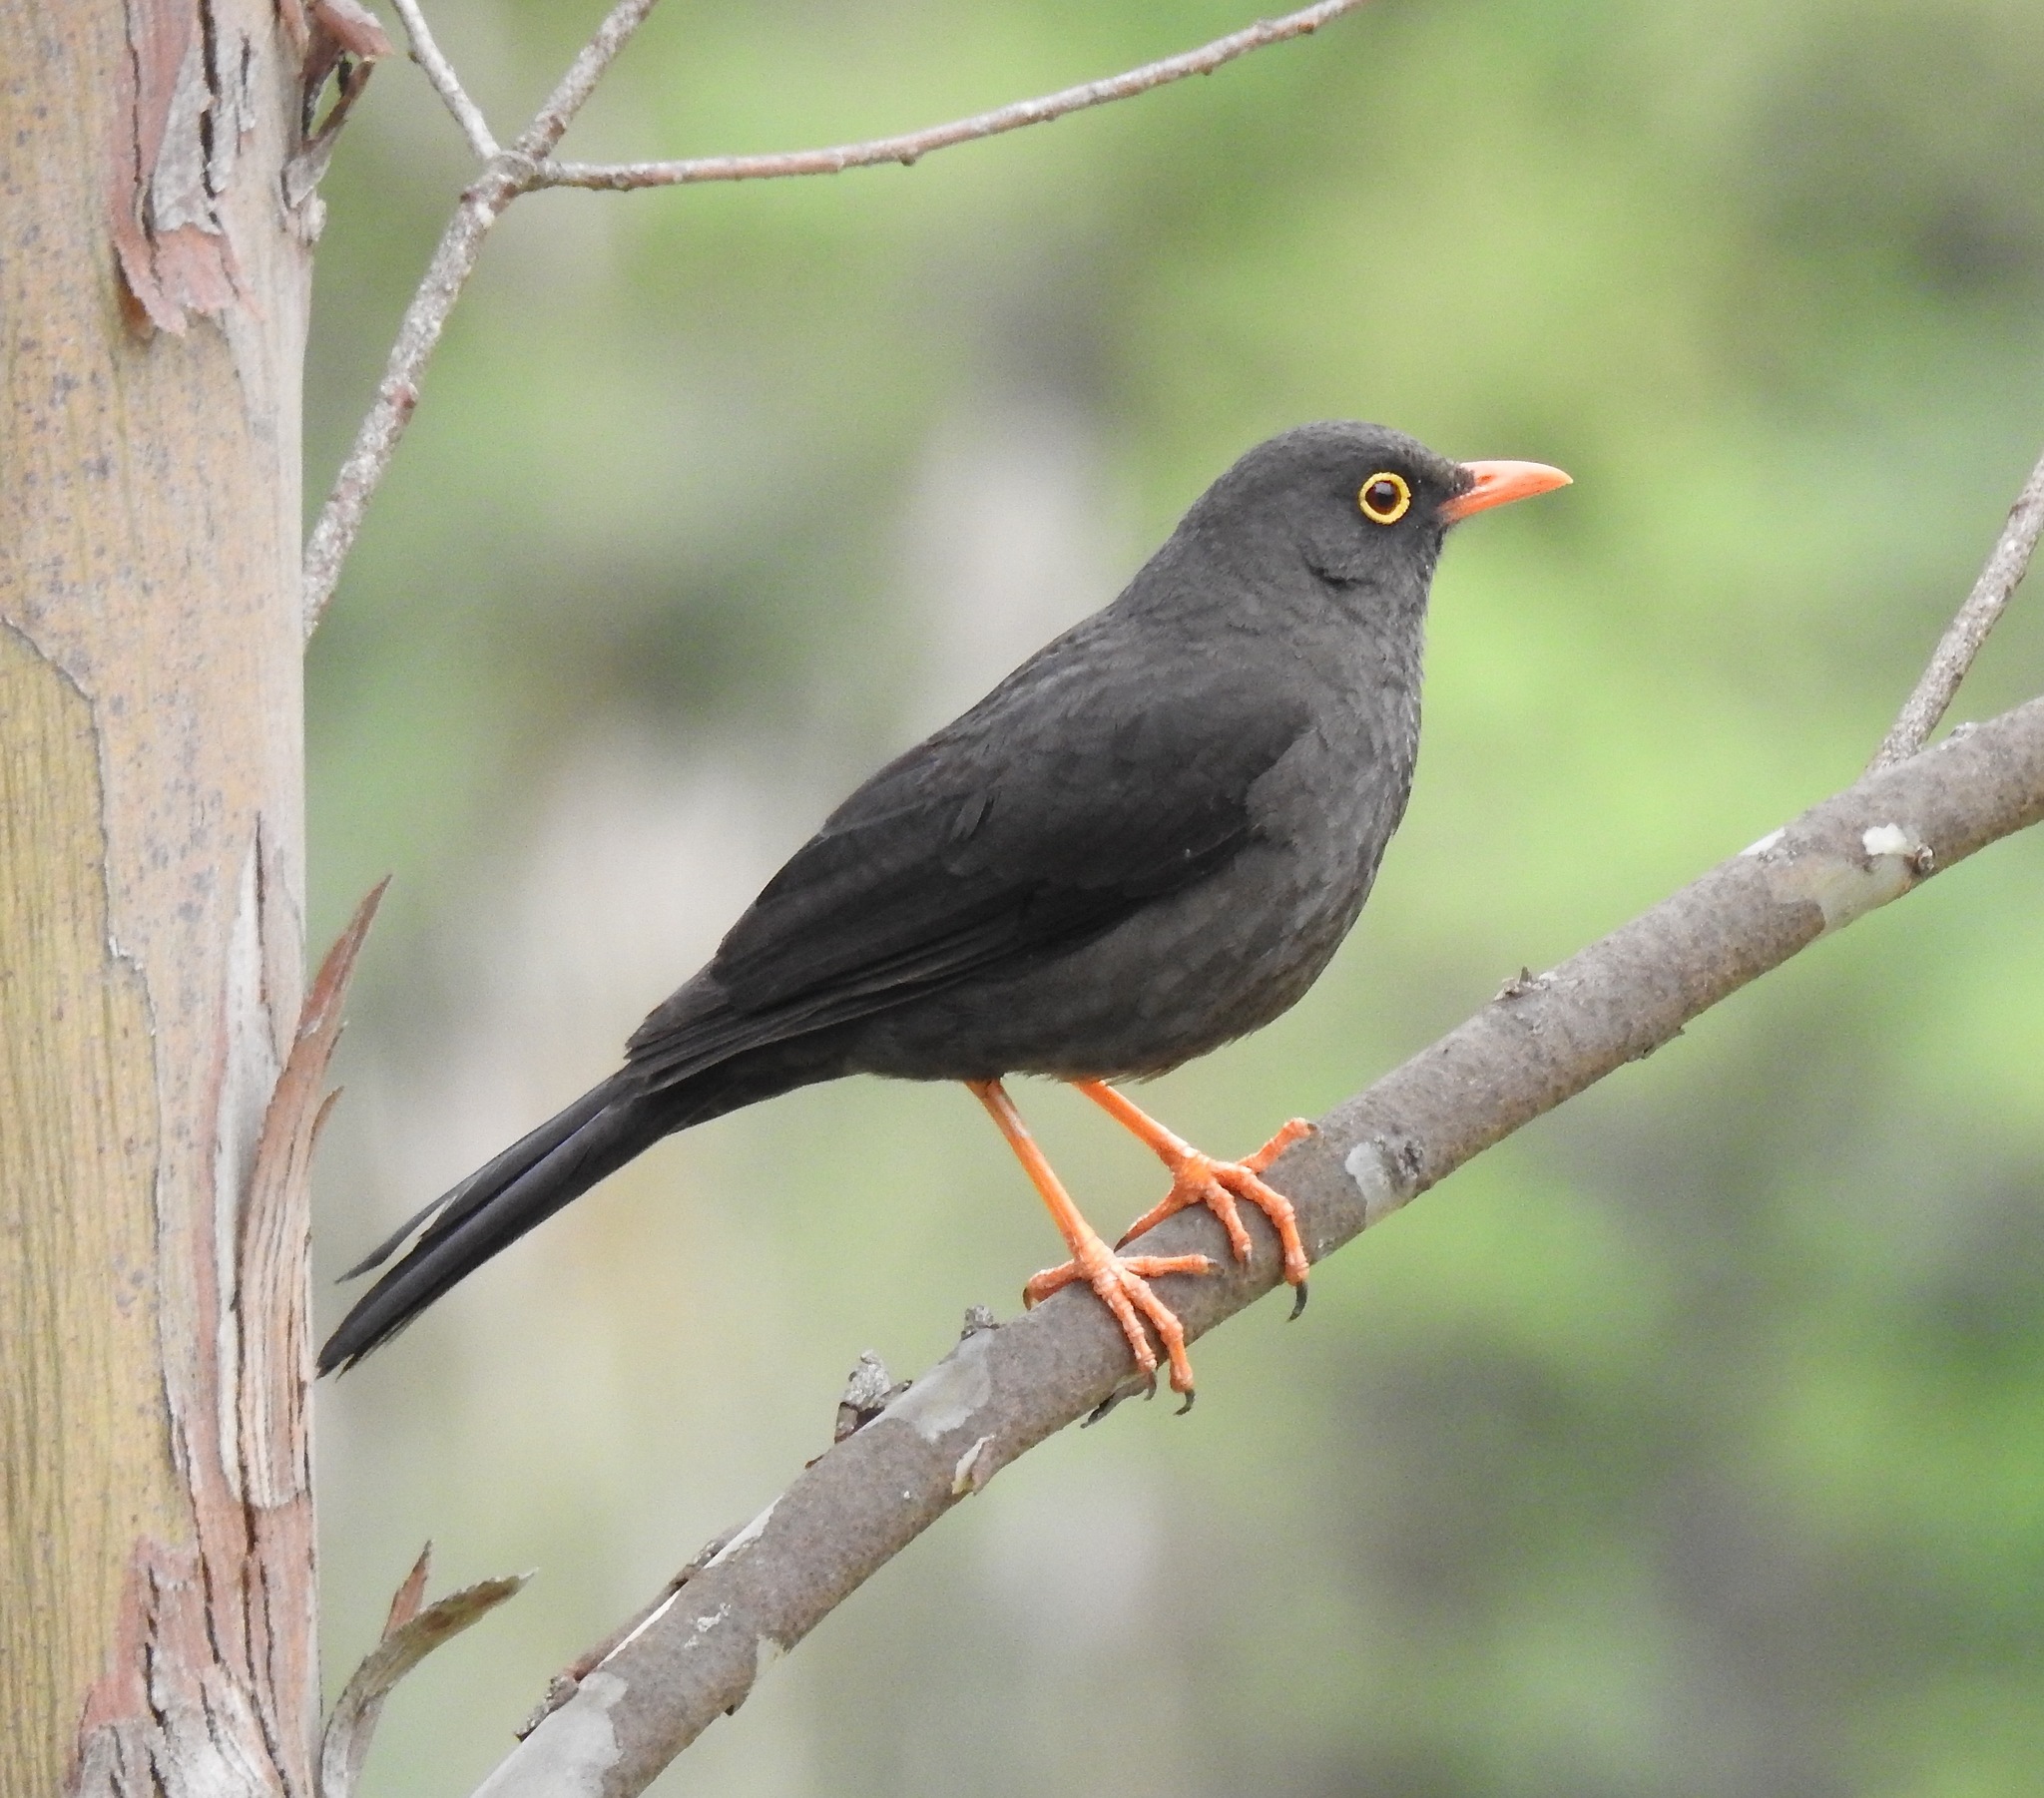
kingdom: Animalia
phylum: Chordata
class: Aves
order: Passeriformes
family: Turdidae
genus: Turdus
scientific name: Turdus fuscater
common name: Great thrush
